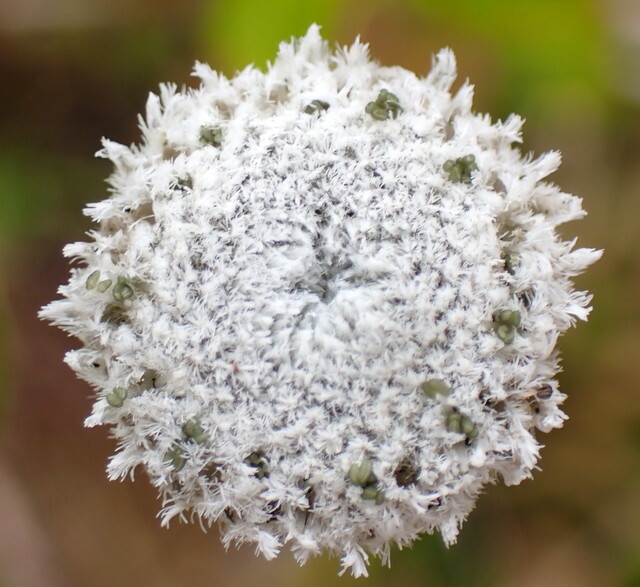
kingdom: Plantae
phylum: Tracheophyta
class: Liliopsida
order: Poales
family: Eriocaulaceae
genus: Eriocaulon
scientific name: Eriocaulon compressum
